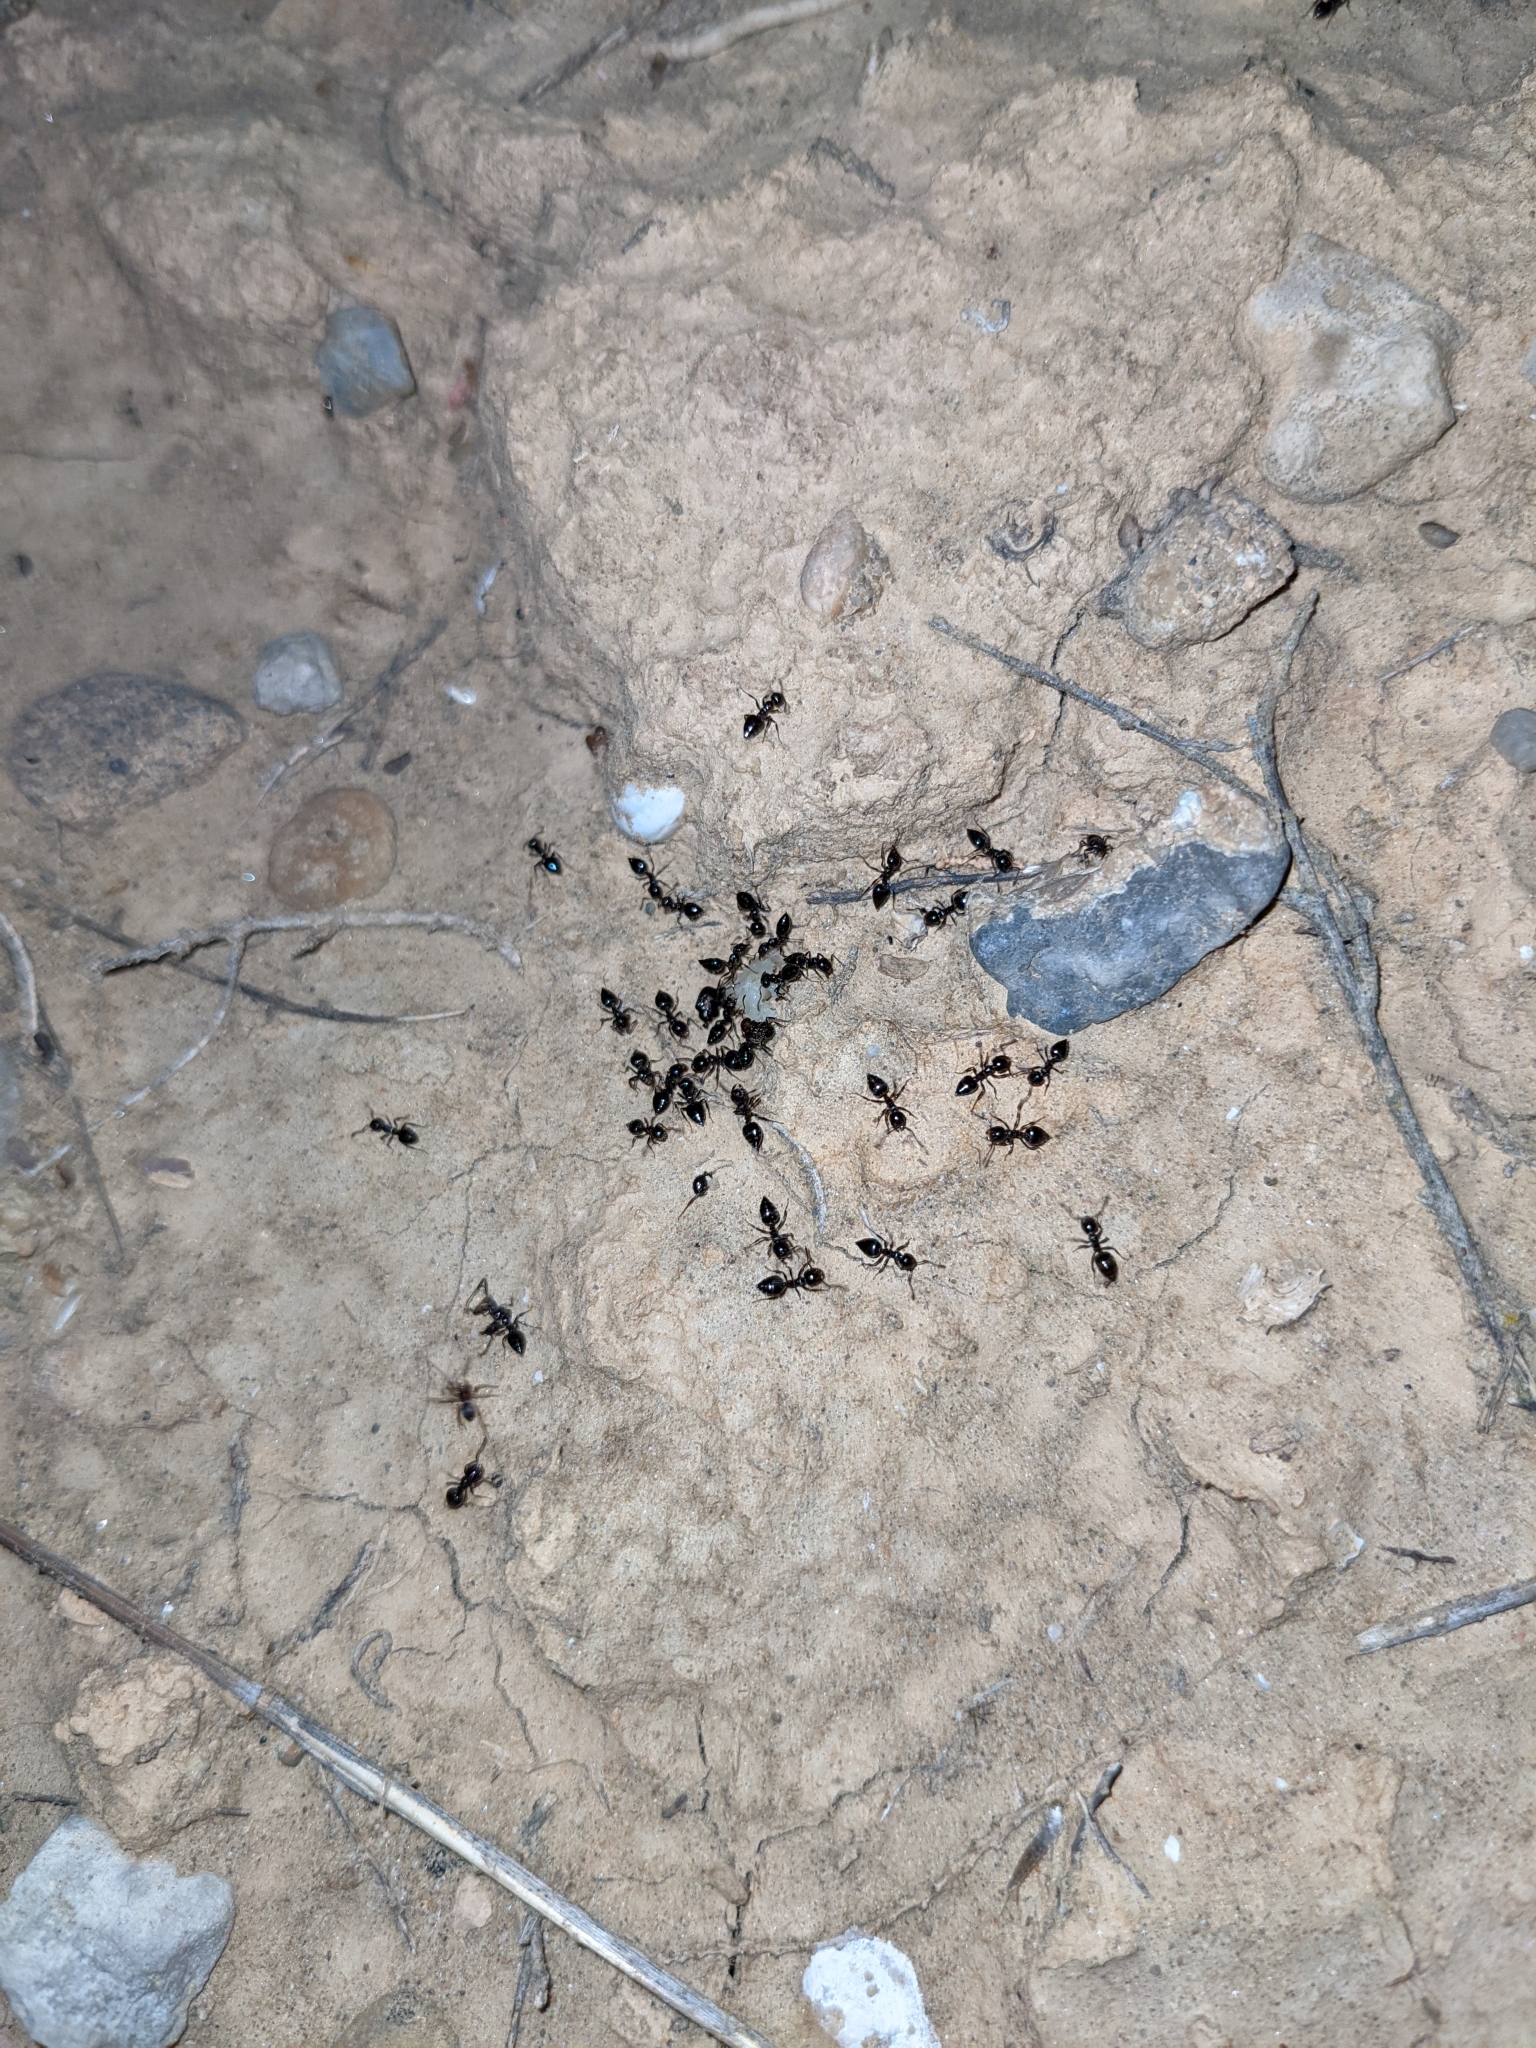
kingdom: Animalia
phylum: Arthropoda
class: Insecta
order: Hymenoptera
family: Formicidae
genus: Crematogaster
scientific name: Crematogaster auberti
